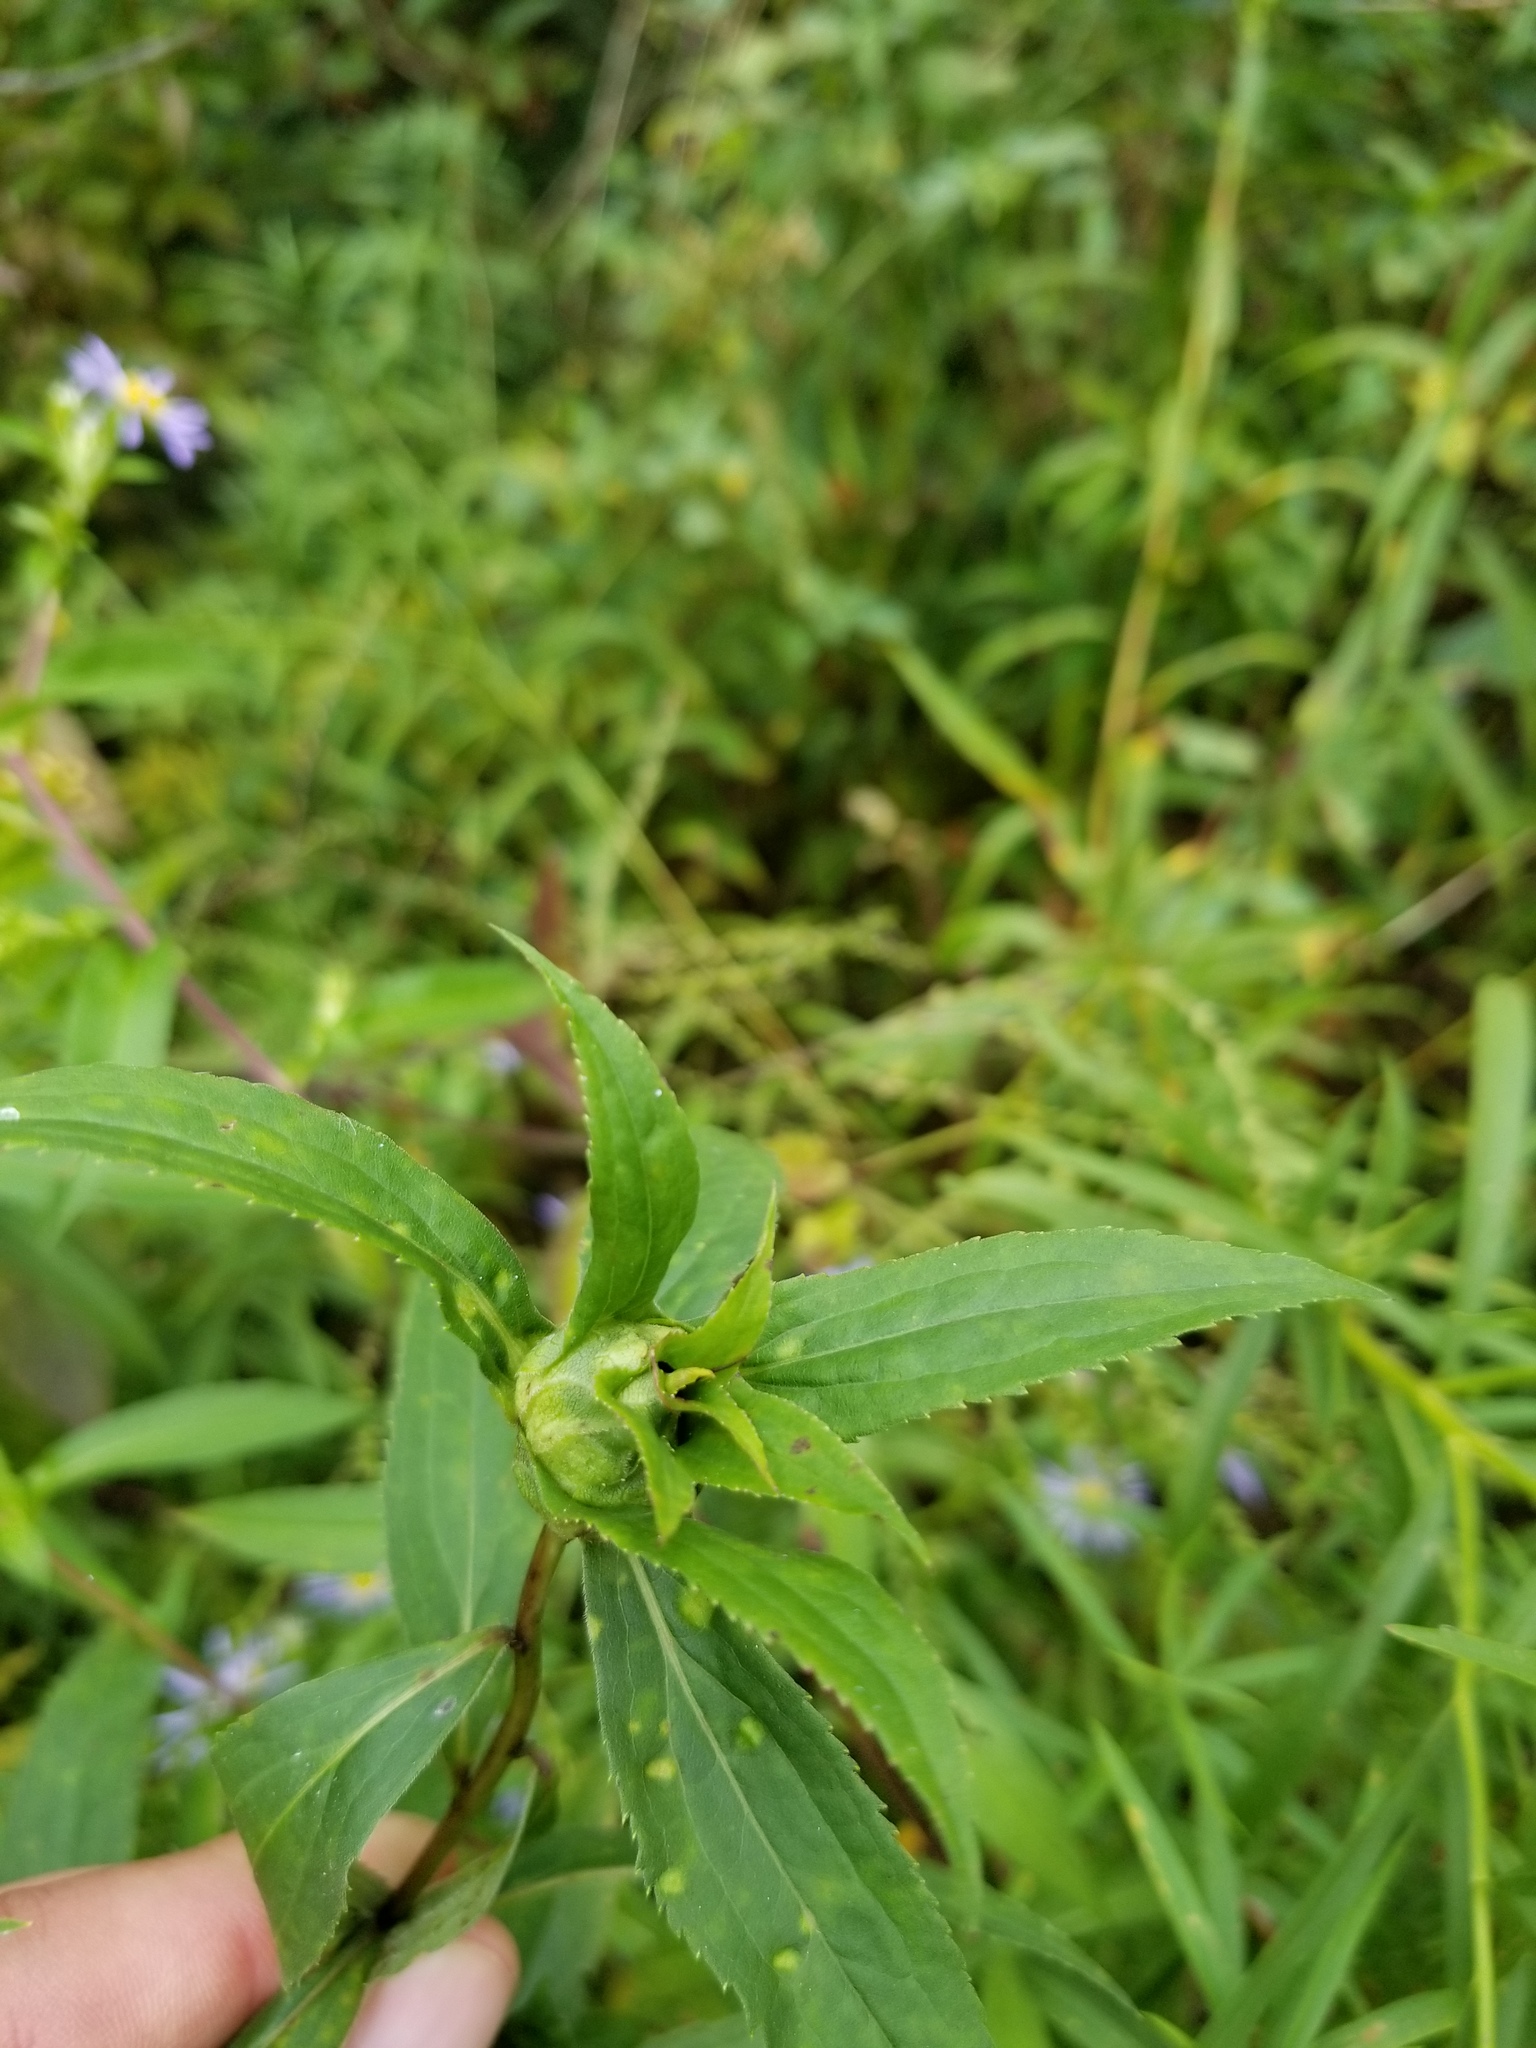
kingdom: Animalia
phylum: Arthropoda
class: Insecta
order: Diptera
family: Cecidomyiidae
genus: Dasineura
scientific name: Dasineura folliculi
